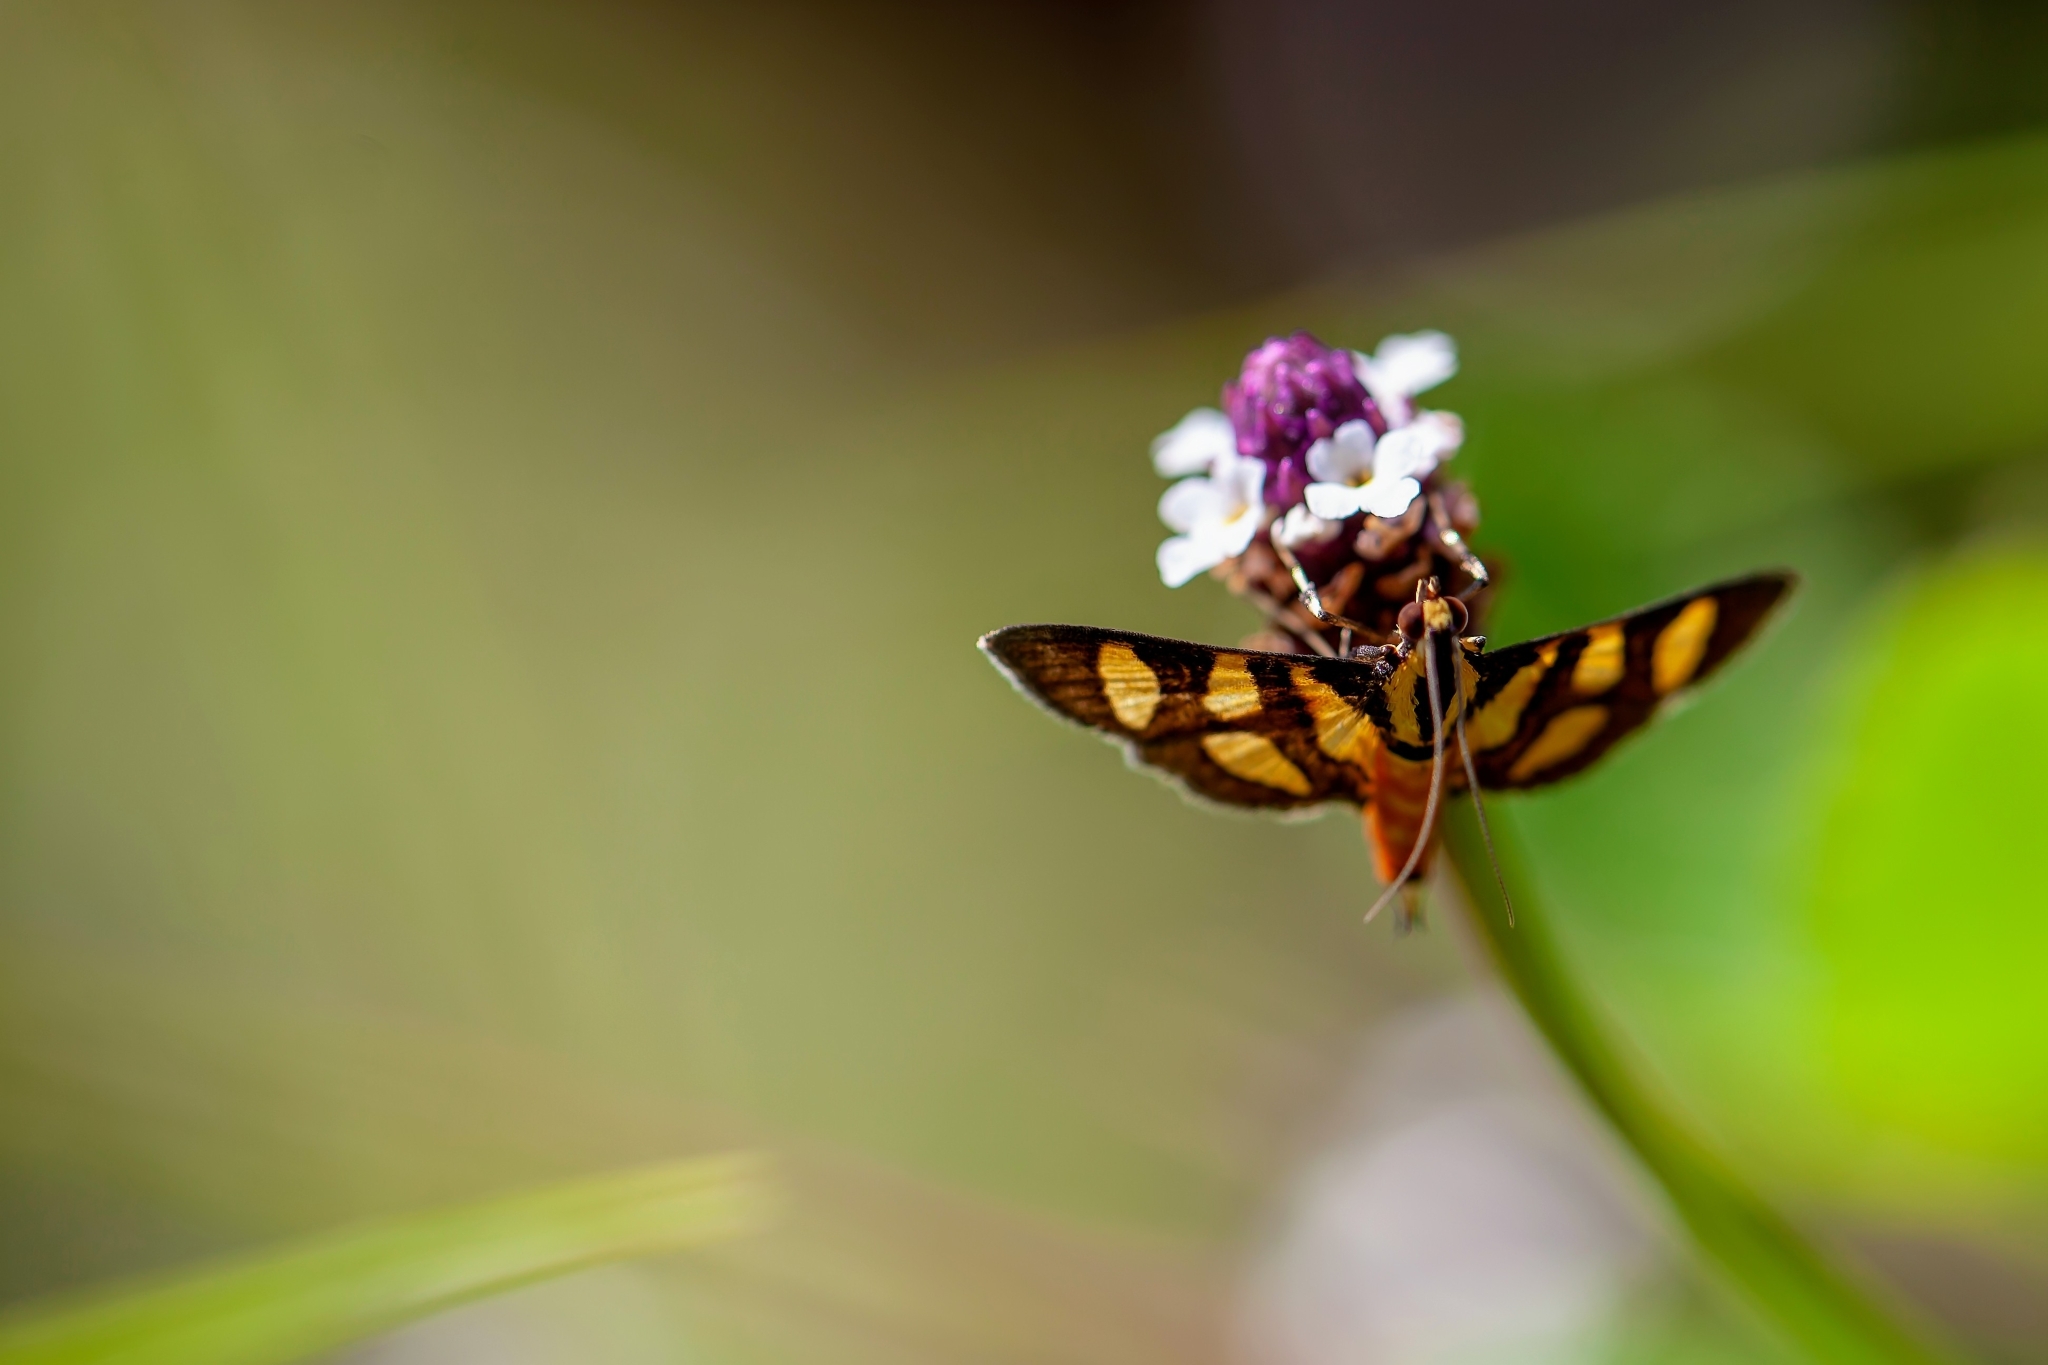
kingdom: Animalia
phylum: Arthropoda
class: Insecta
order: Lepidoptera
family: Crambidae
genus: Syngamia
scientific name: Syngamia florella
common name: Orange-spotted flower moth
